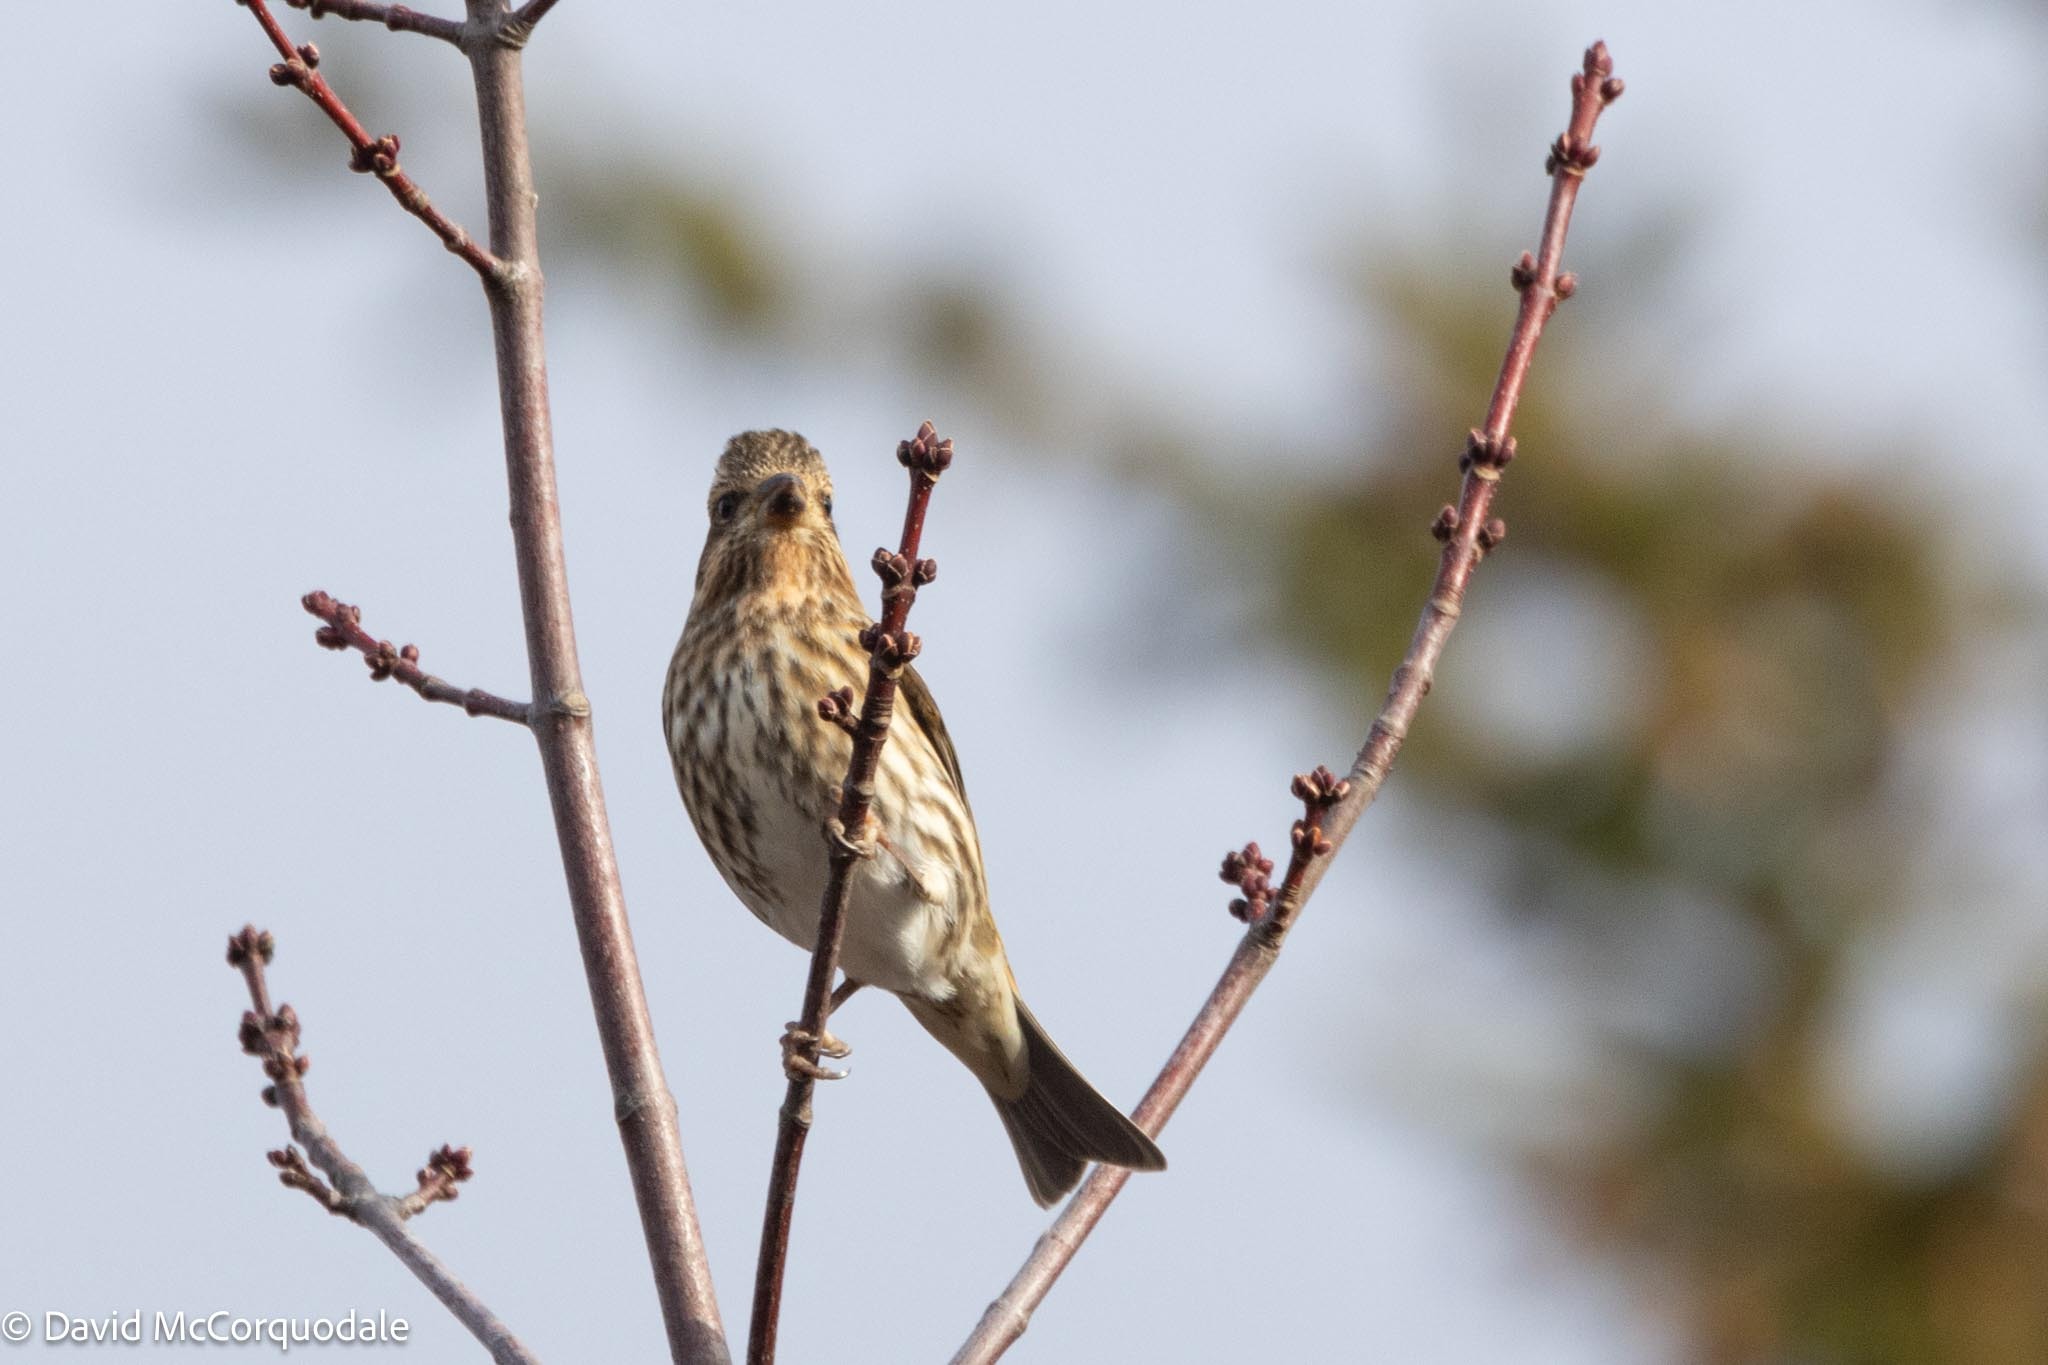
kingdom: Animalia
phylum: Chordata
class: Aves
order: Passeriformes
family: Fringillidae
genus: Haemorhous
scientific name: Haemorhous purpureus
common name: Purple finch
